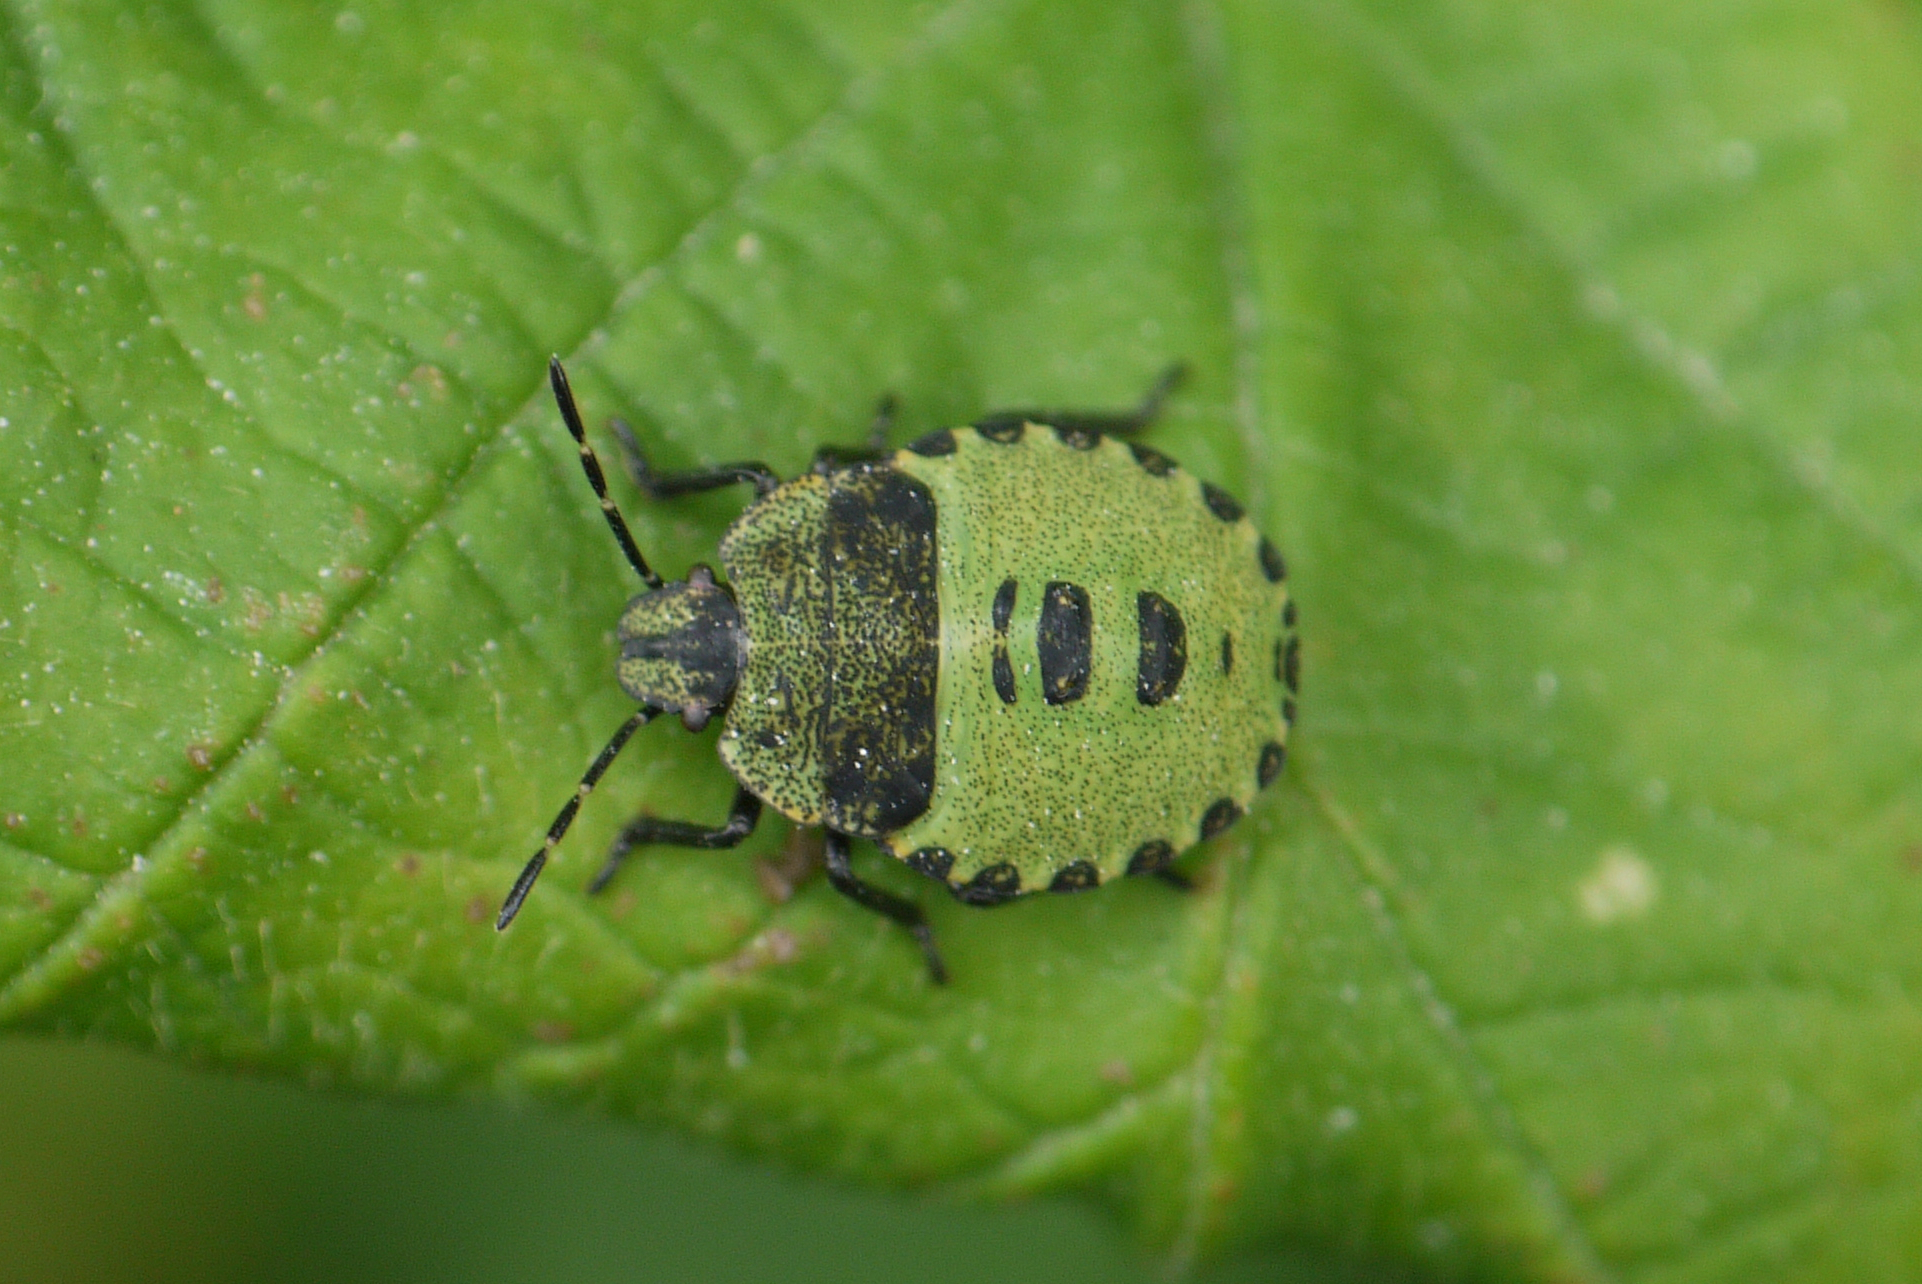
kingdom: Animalia
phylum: Arthropoda
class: Insecta
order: Hemiptera
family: Pentatomidae
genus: Palomena
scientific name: Palomena prasina
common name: Green shieldbug
